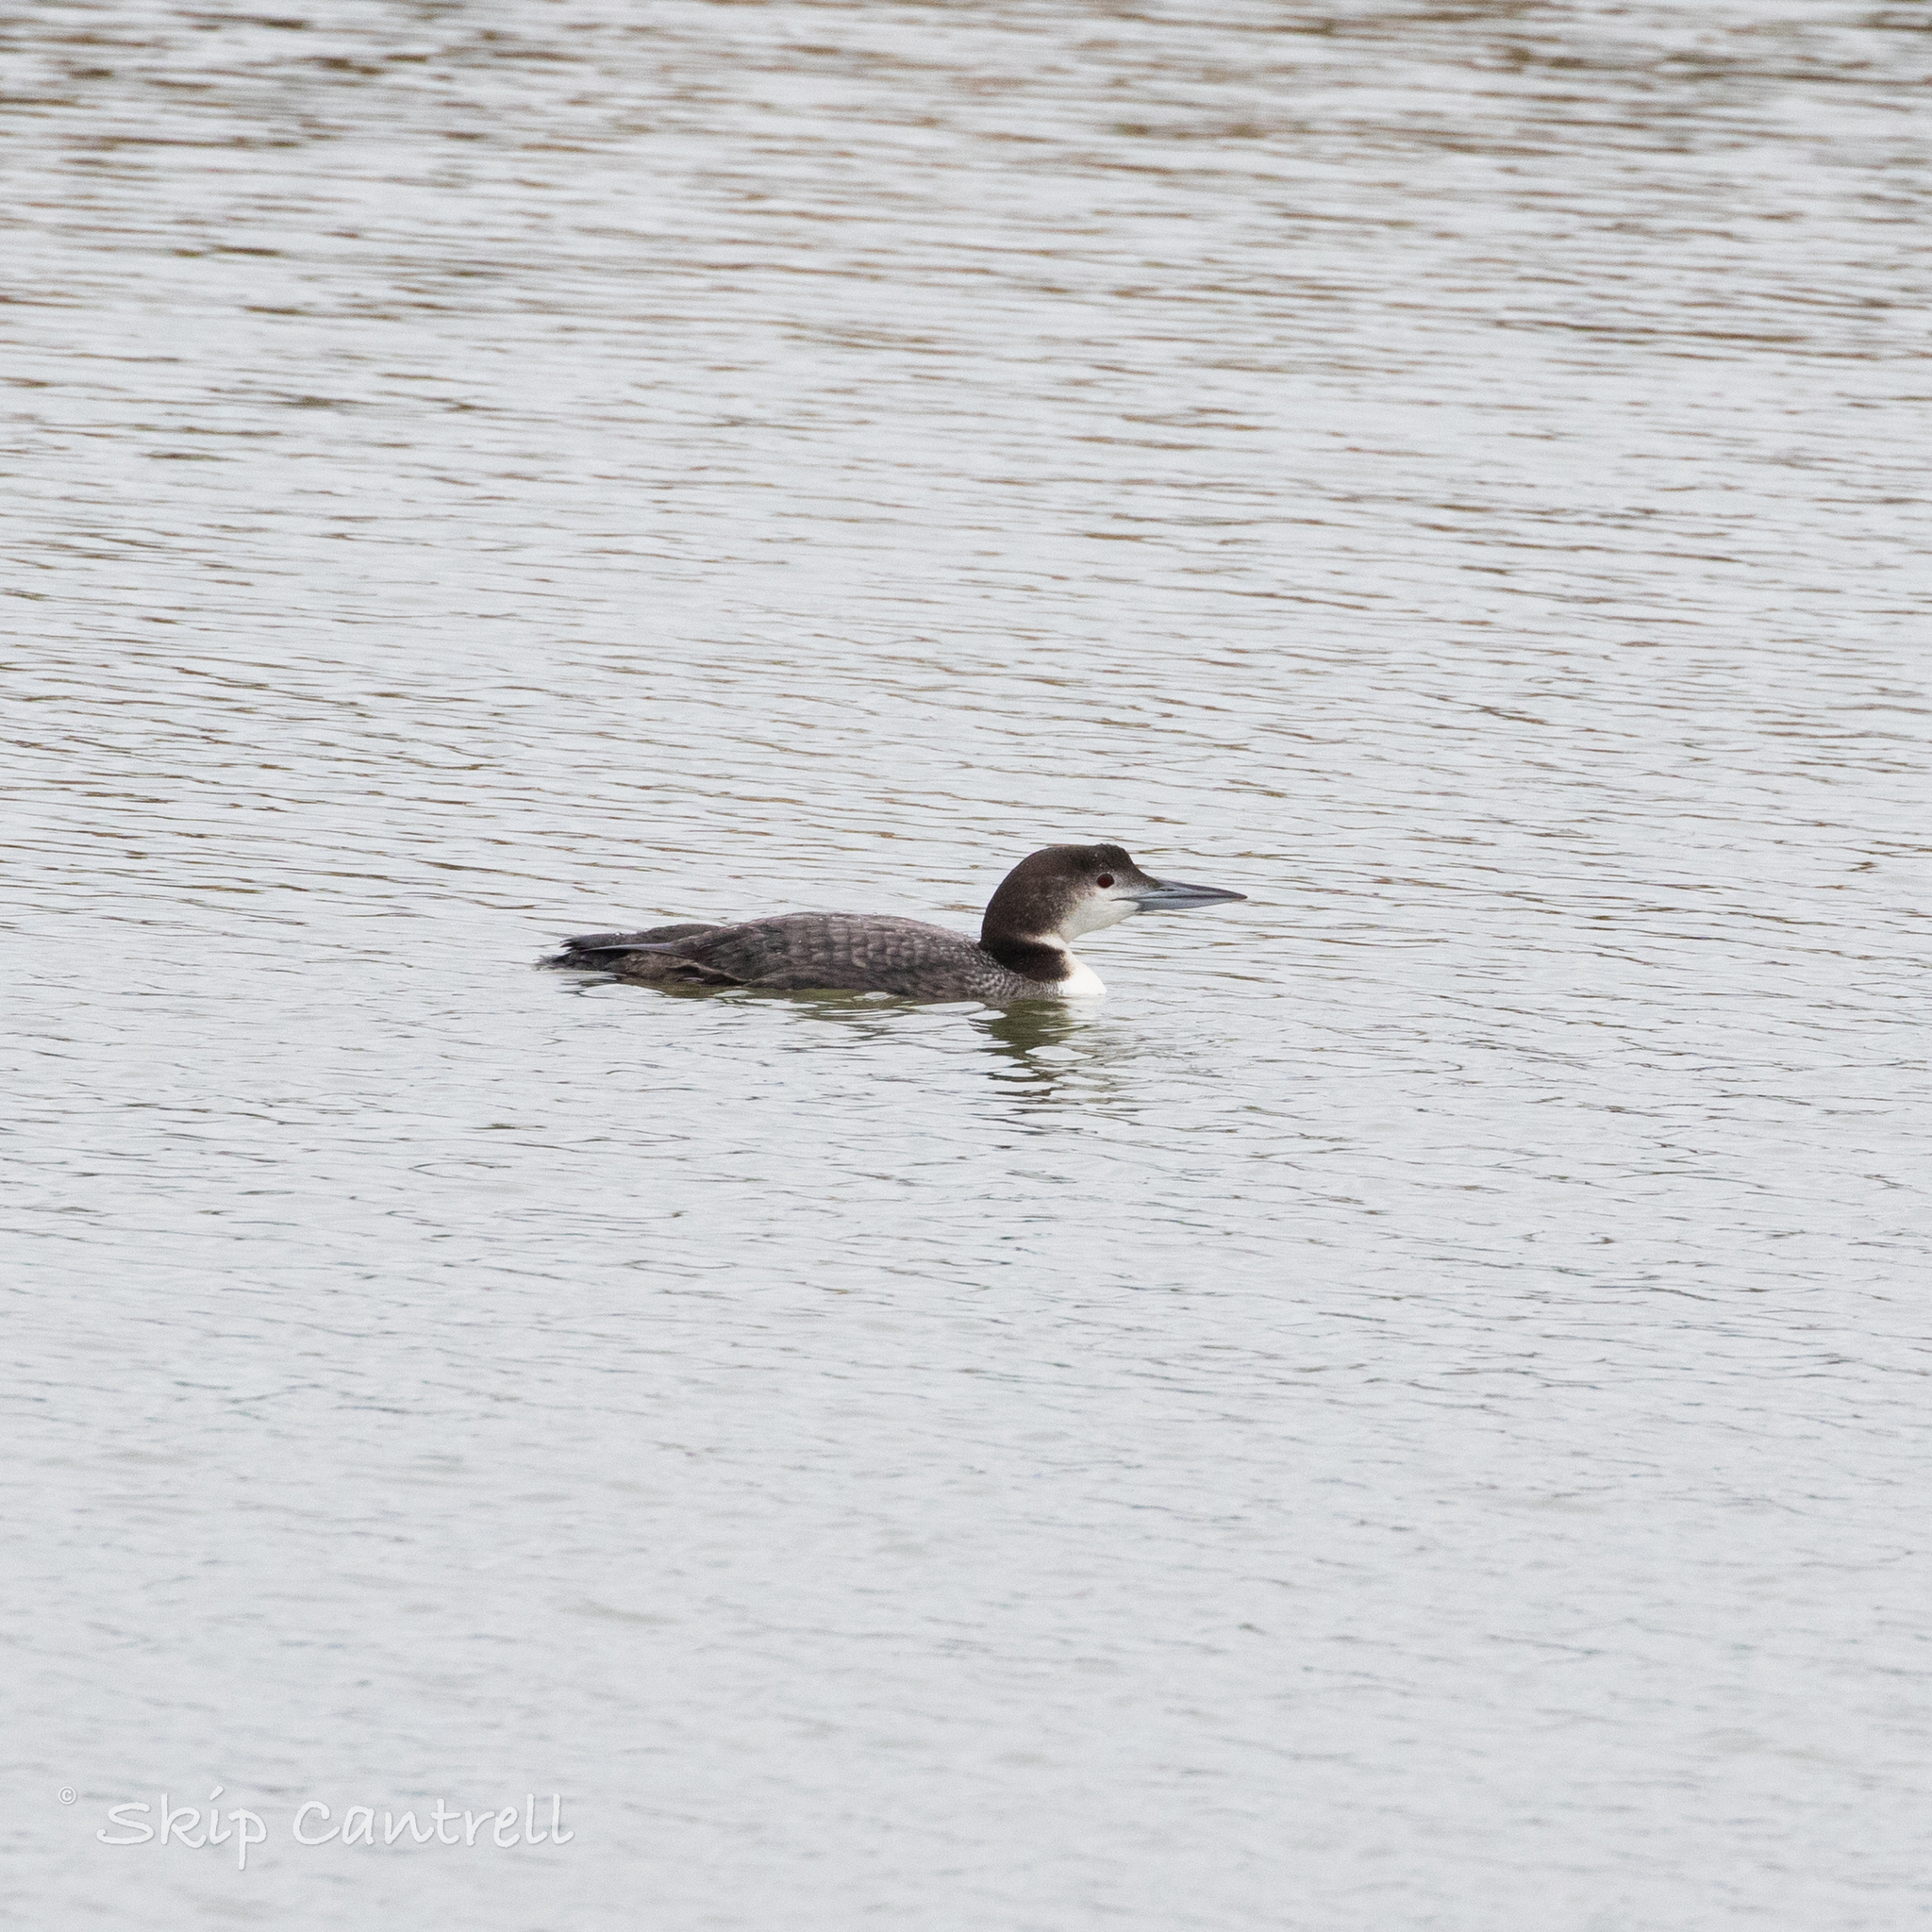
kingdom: Animalia
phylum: Chordata
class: Aves
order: Gaviiformes
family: Gaviidae
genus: Gavia
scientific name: Gavia immer
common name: Common loon
